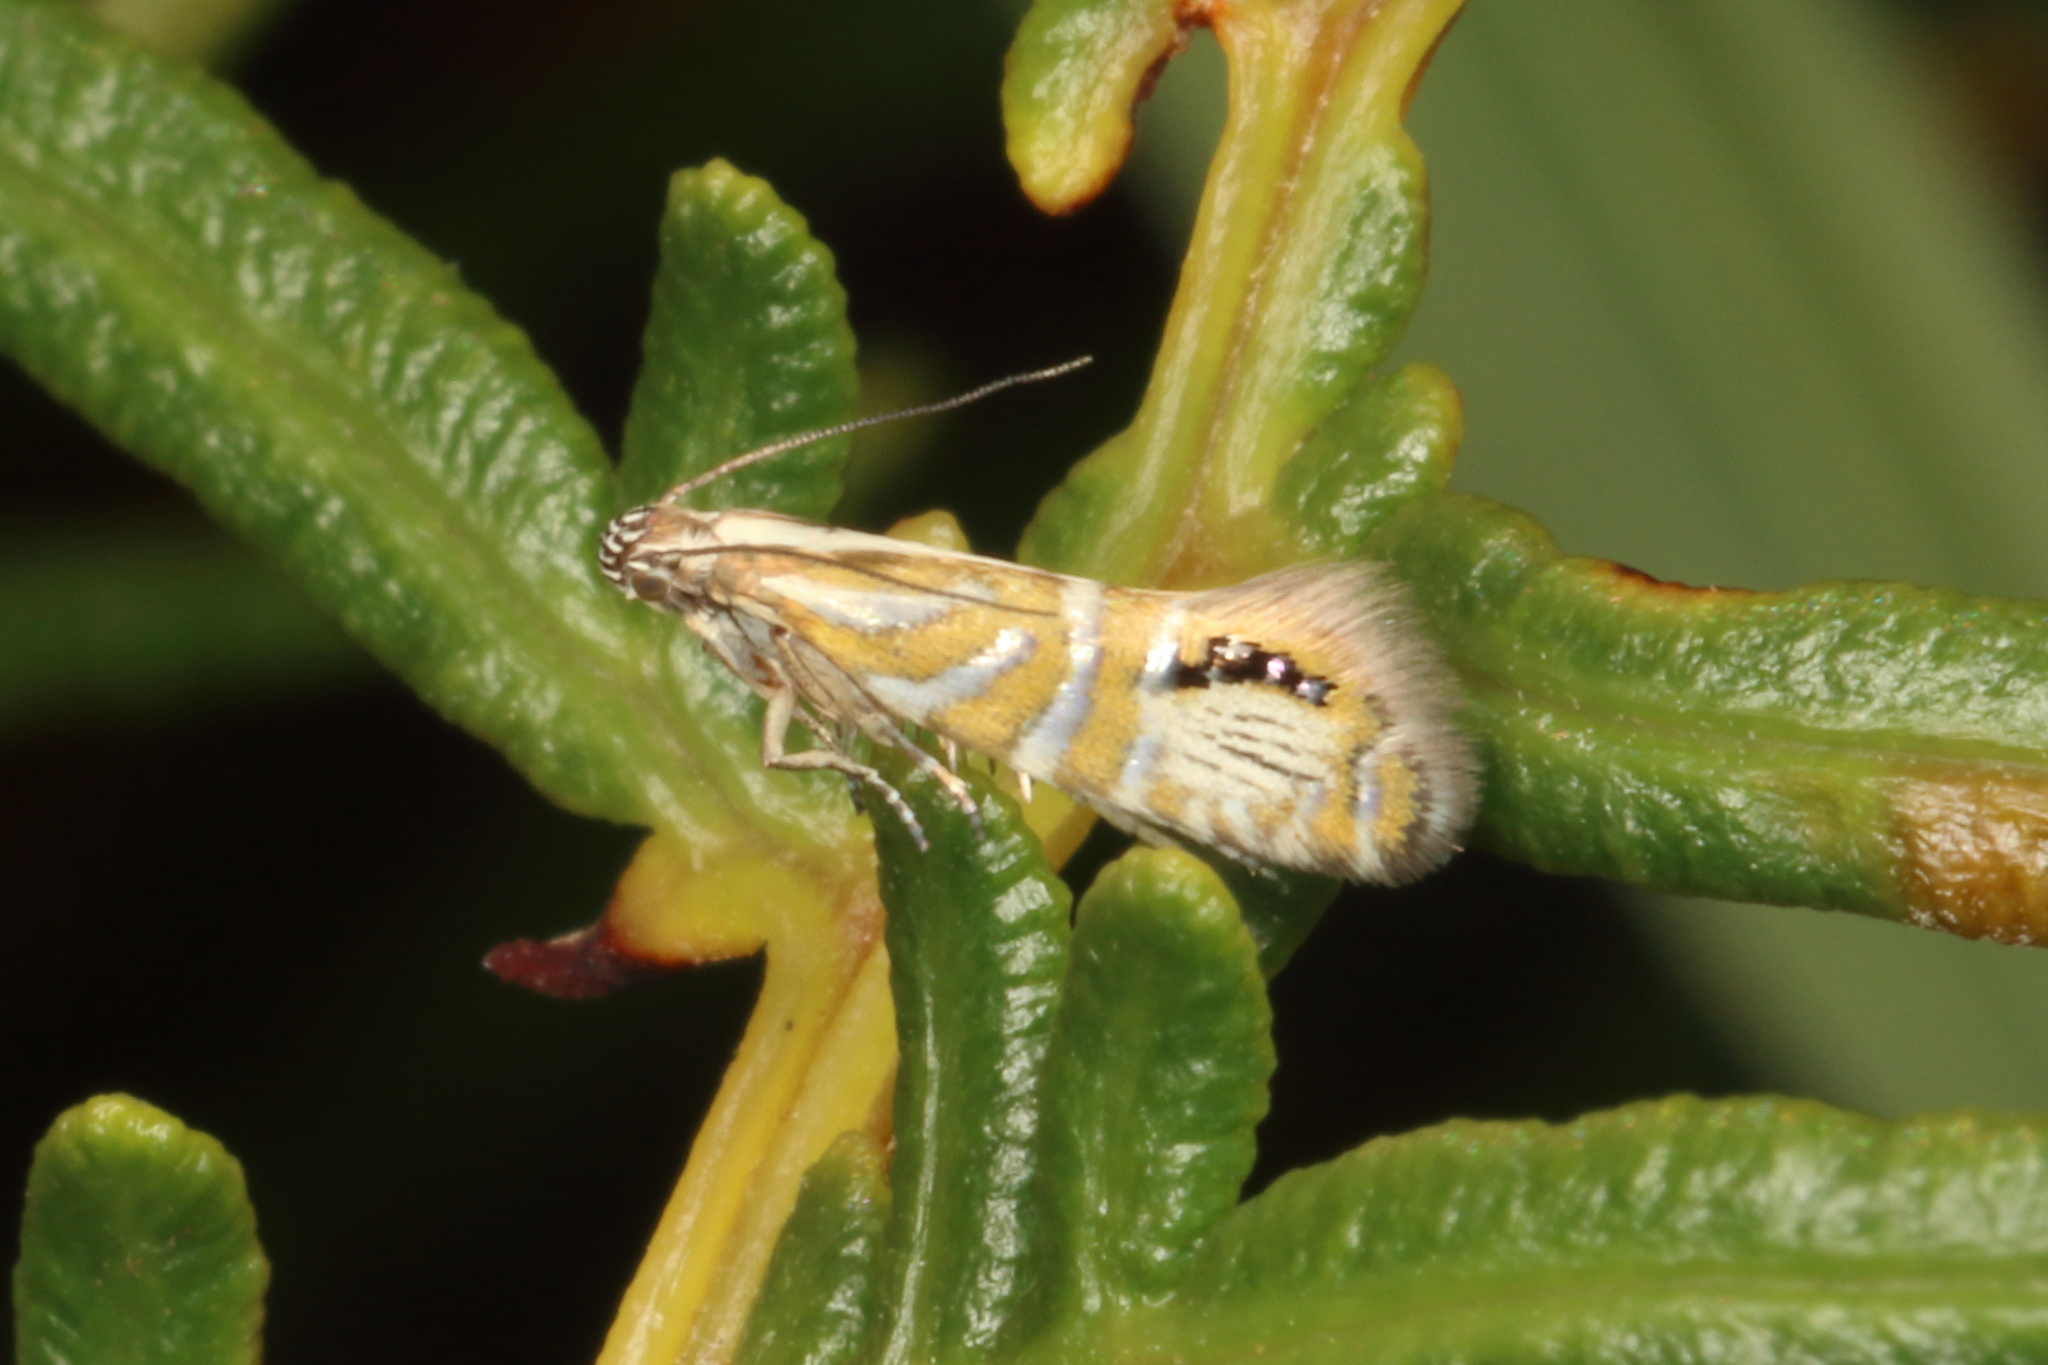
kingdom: Animalia
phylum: Arthropoda
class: Insecta
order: Lepidoptera
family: Glyphipterigidae
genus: Glyphipterix
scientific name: Glyphipterix triselena
